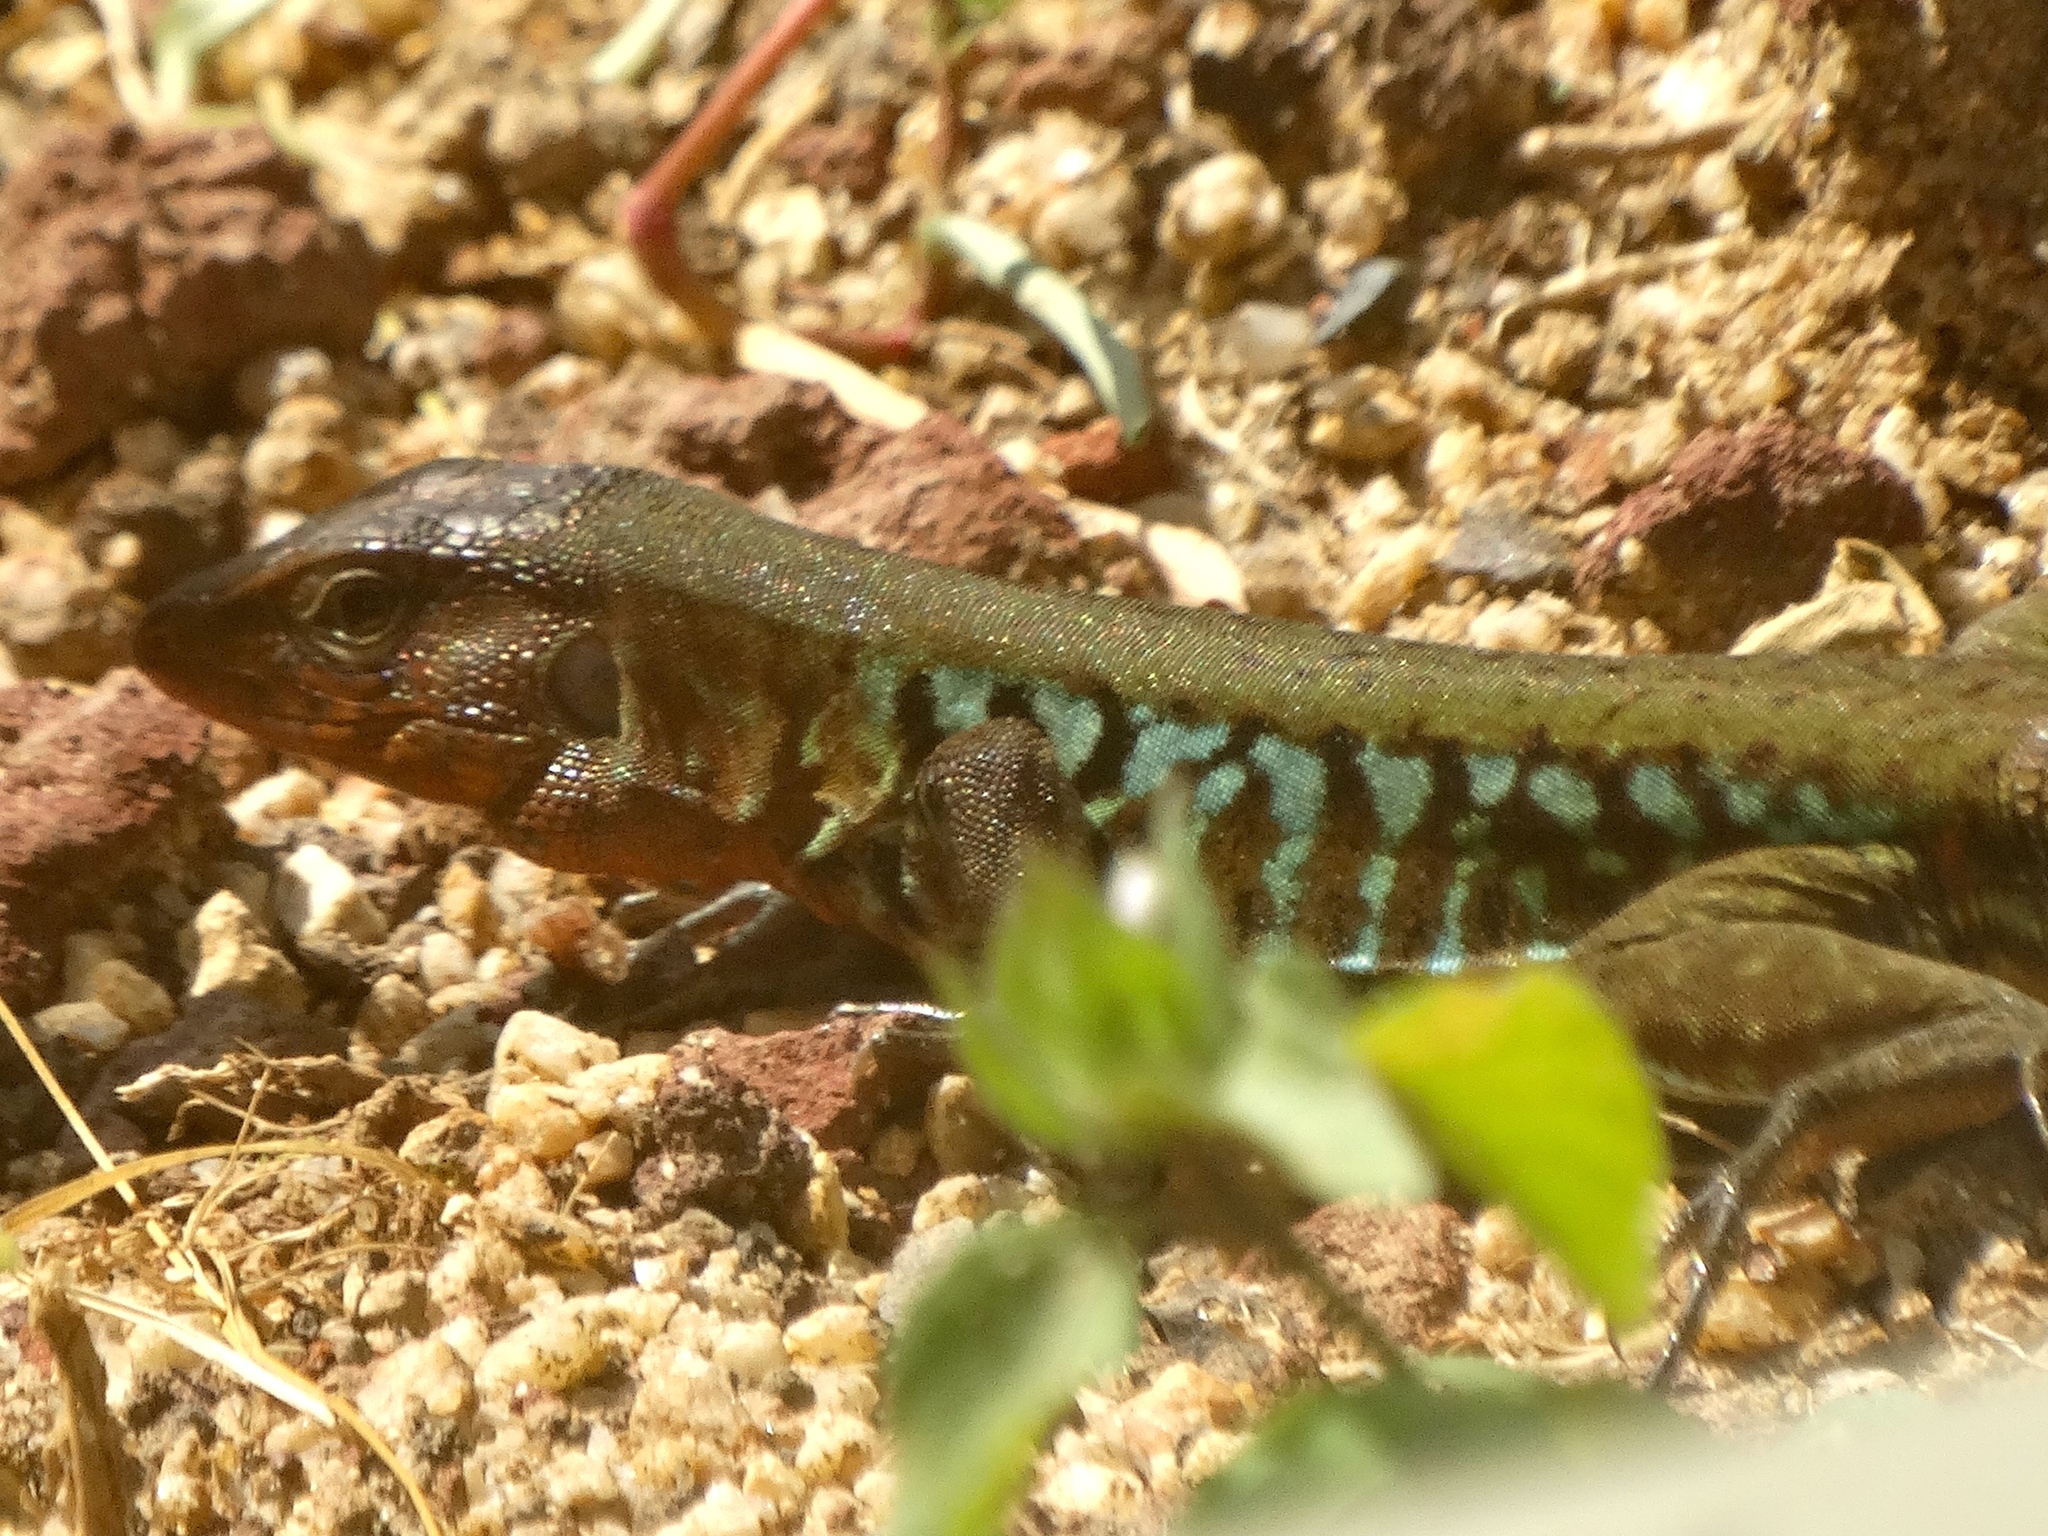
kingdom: Animalia
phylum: Chordata
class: Squamata
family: Teiidae
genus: Holcosus
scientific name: Holcosus sinister
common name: Rainbow ameiva
